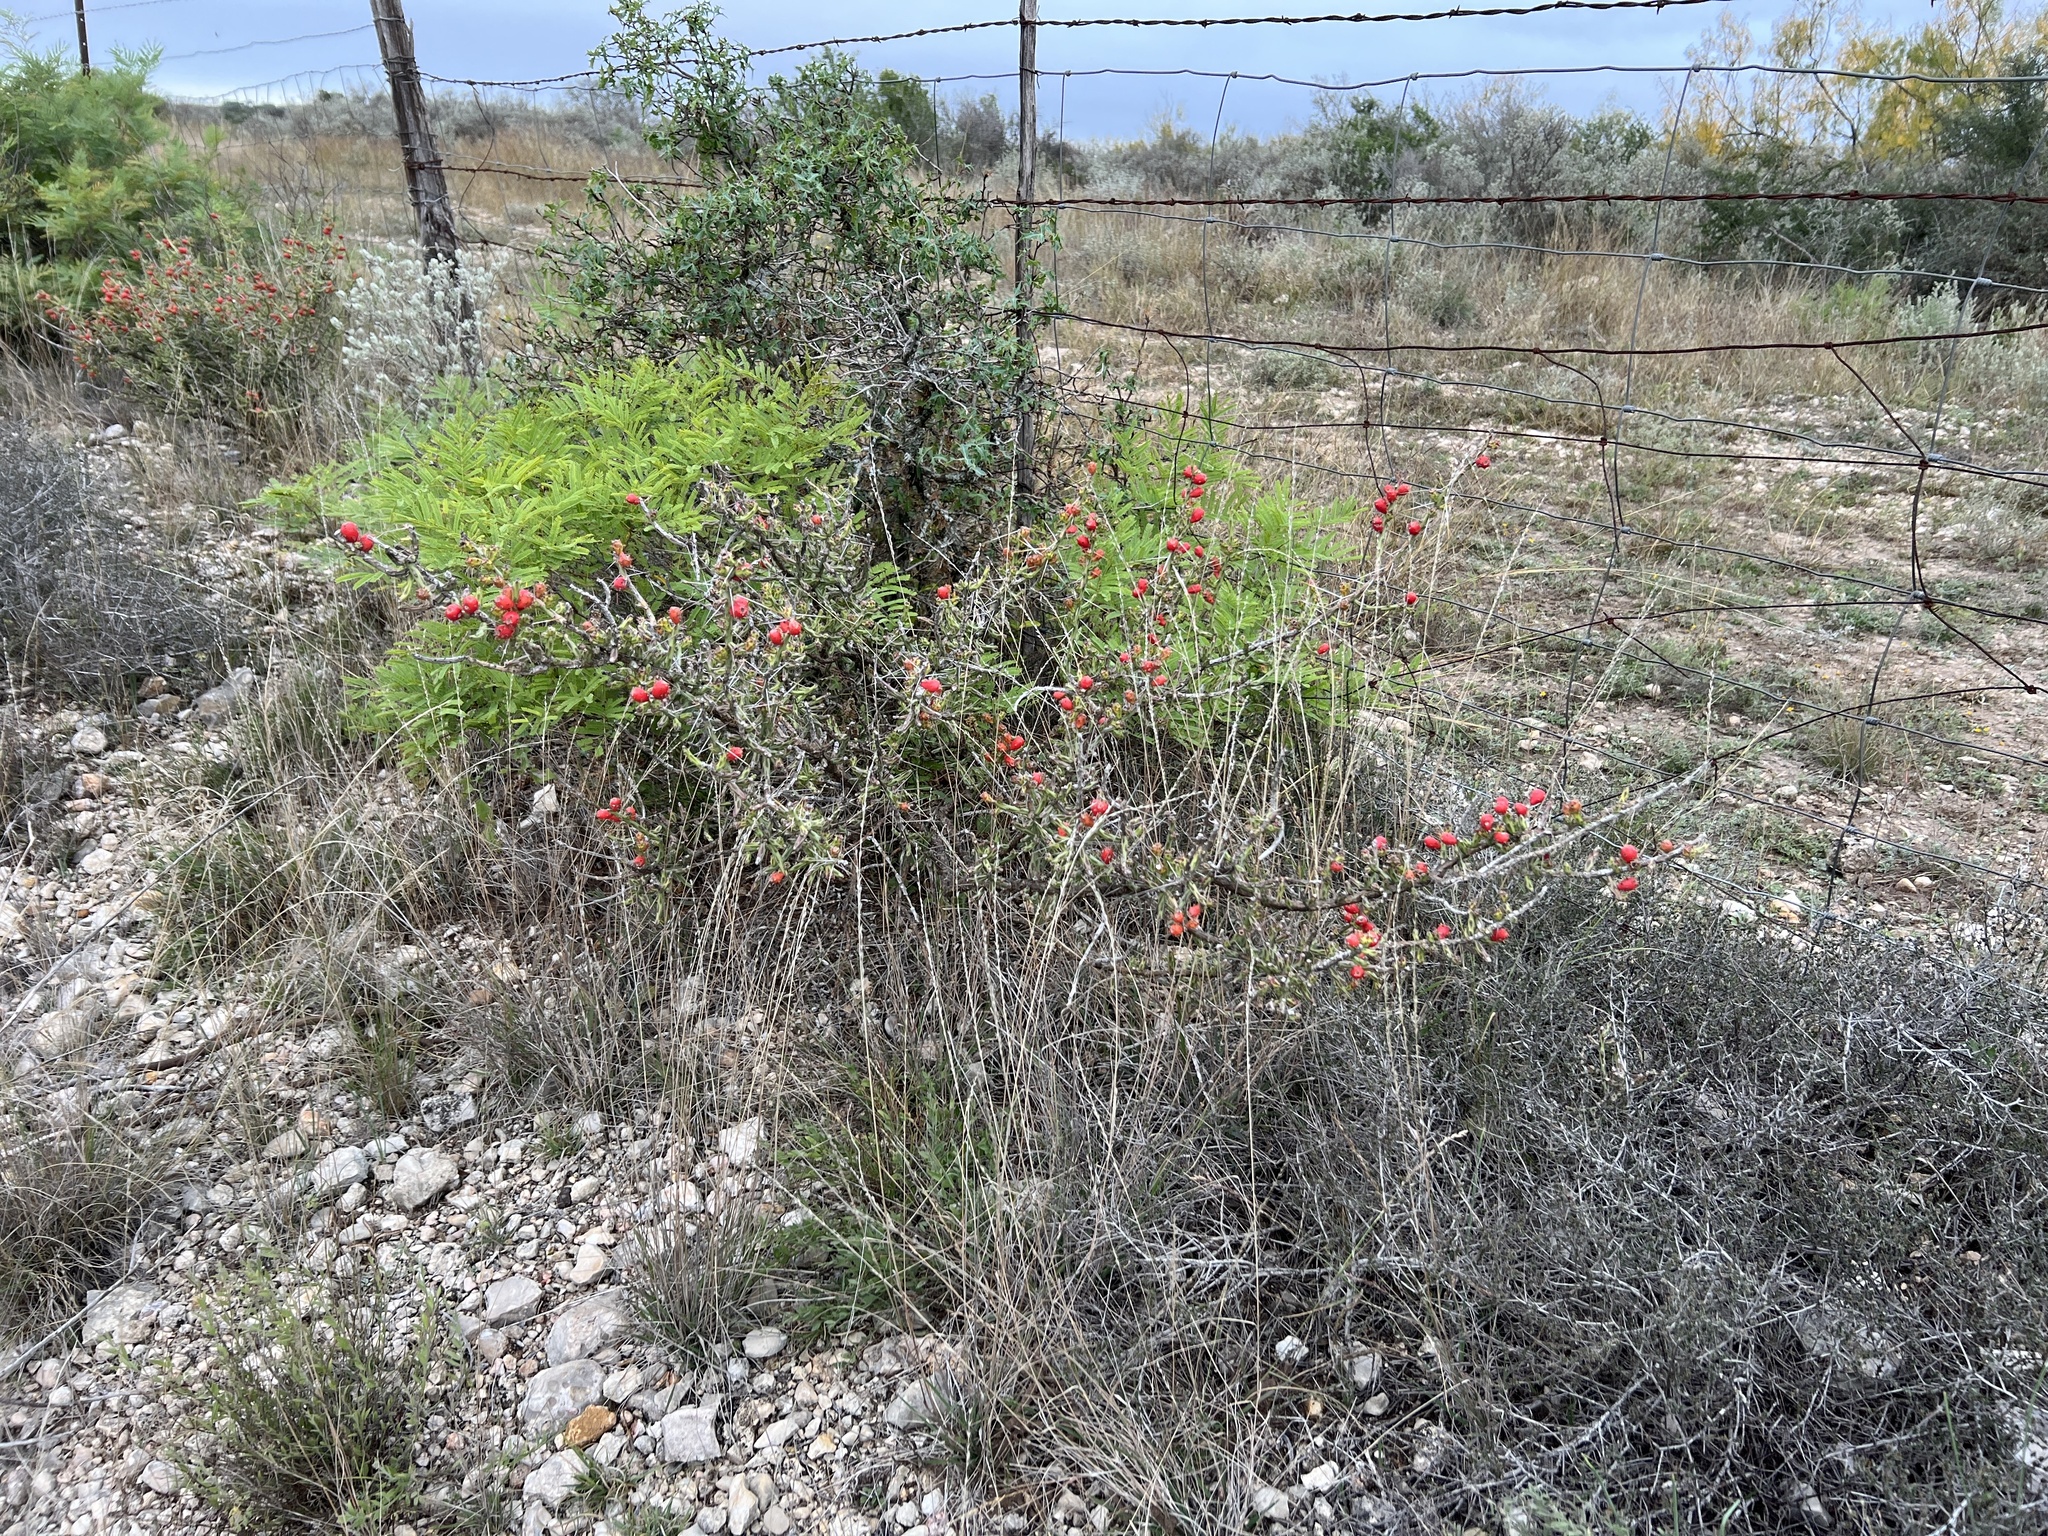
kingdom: Plantae
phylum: Tracheophyta
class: Magnoliopsida
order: Caryophyllales
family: Cactaceae
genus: Cylindropuntia
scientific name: Cylindropuntia leptocaulis
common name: Christmas cactus
